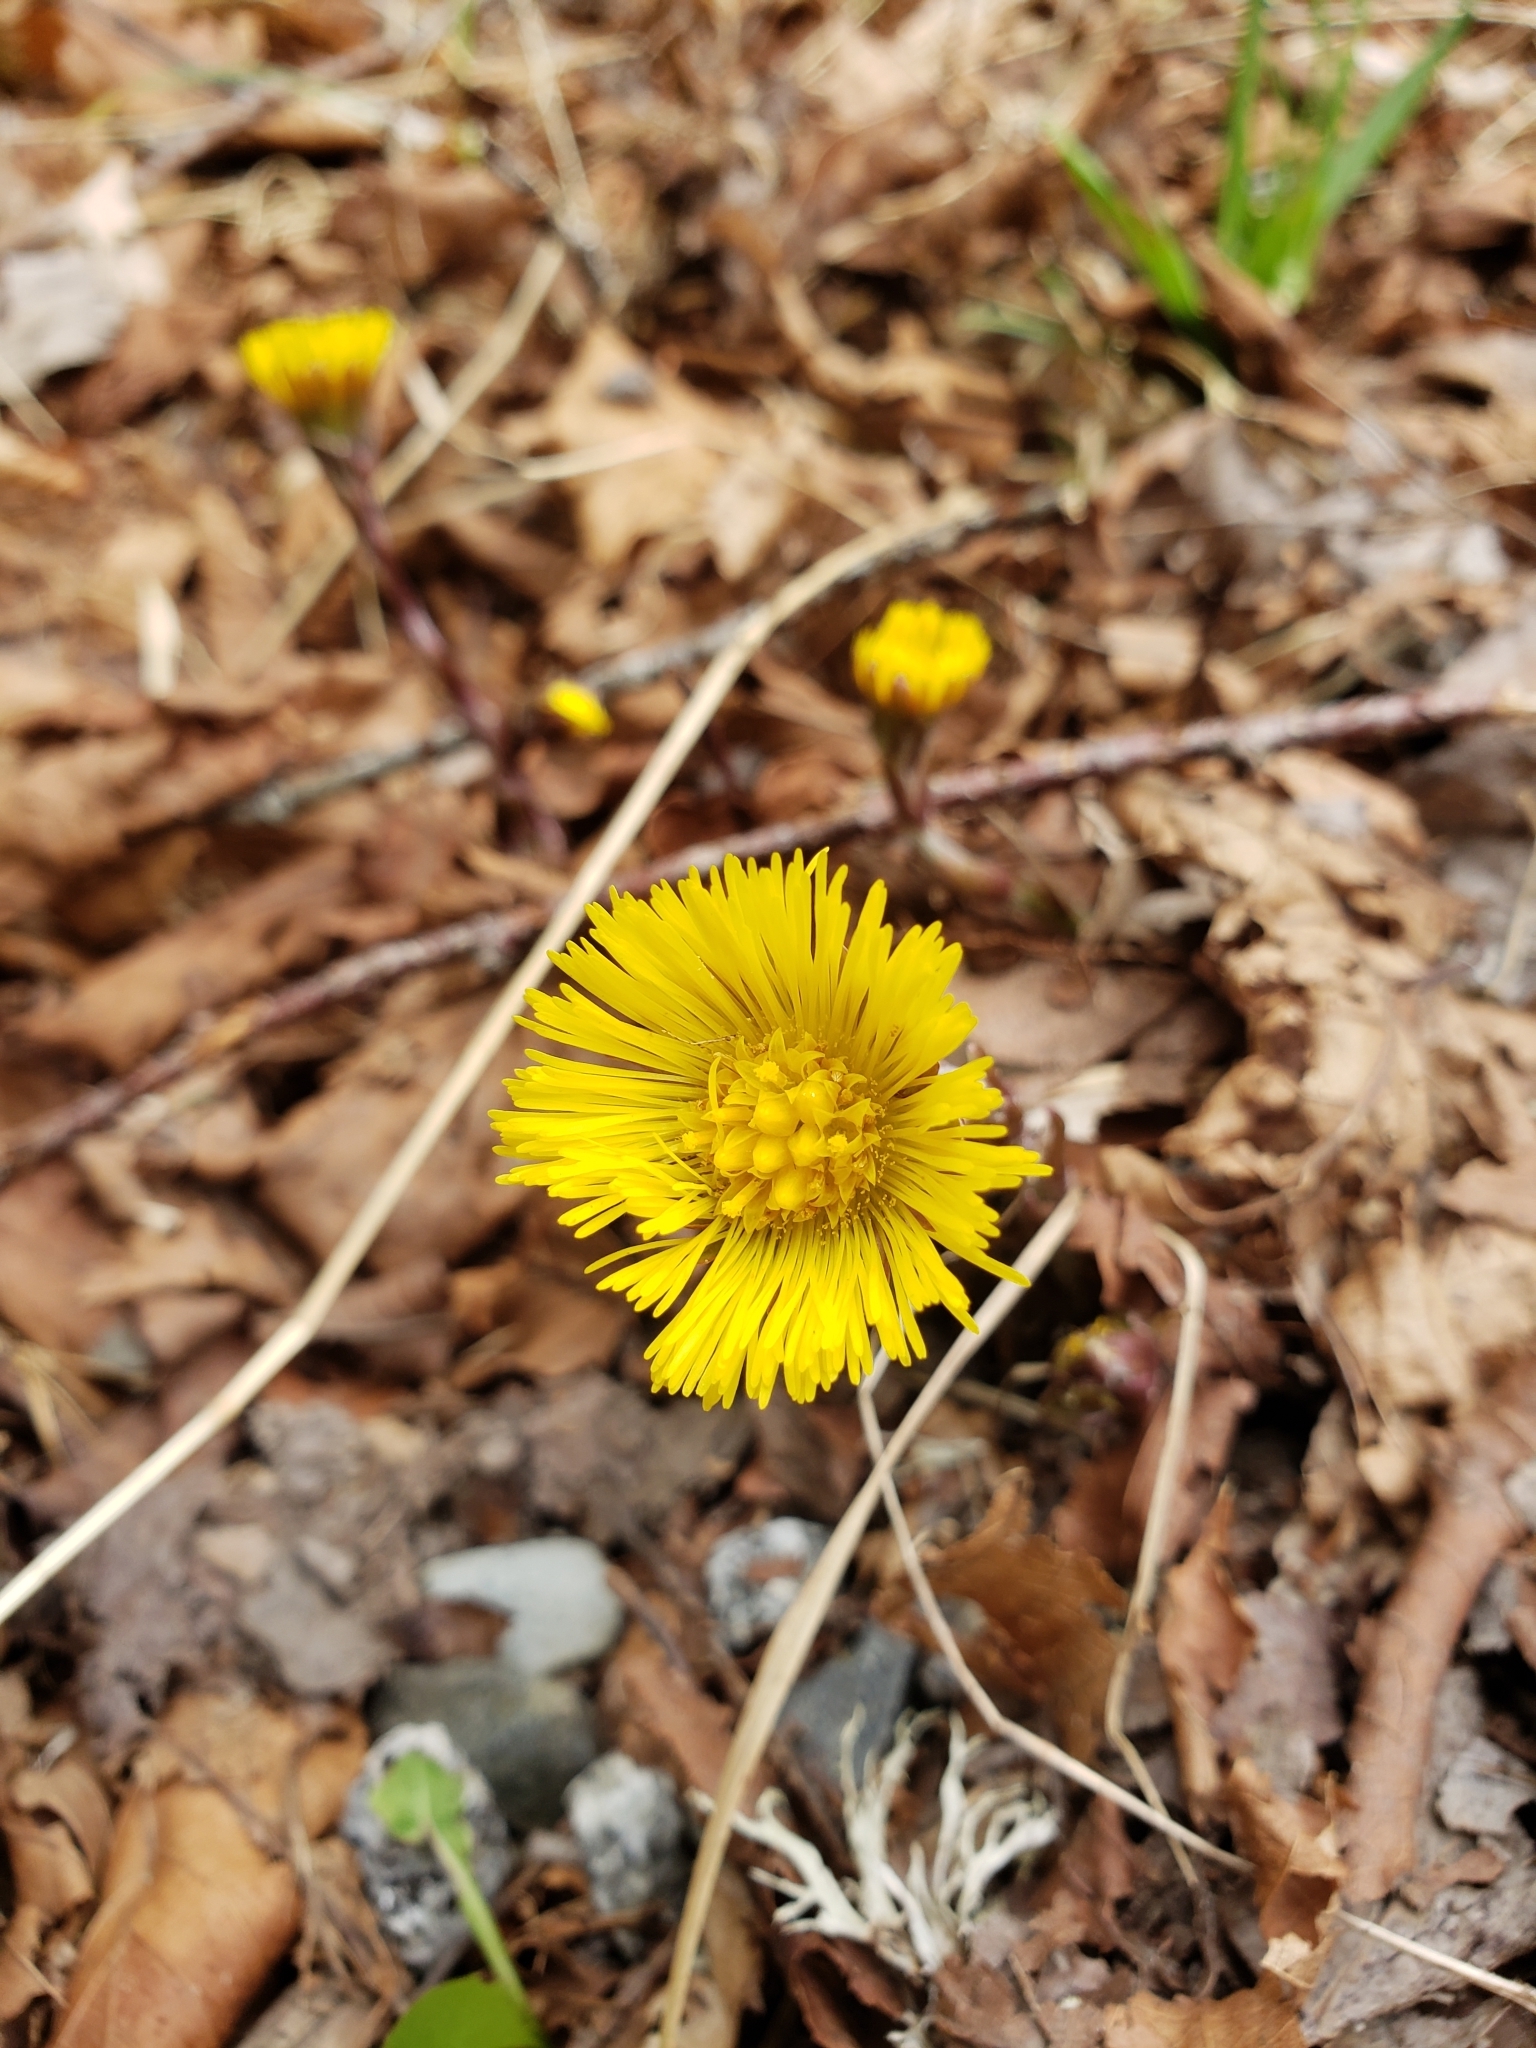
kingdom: Plantae
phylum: Tracheophyta
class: Magnoliopsida
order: Asterales
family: Asteraceae
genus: Tussilago
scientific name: Tussilago farfara
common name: Coltsfoot
